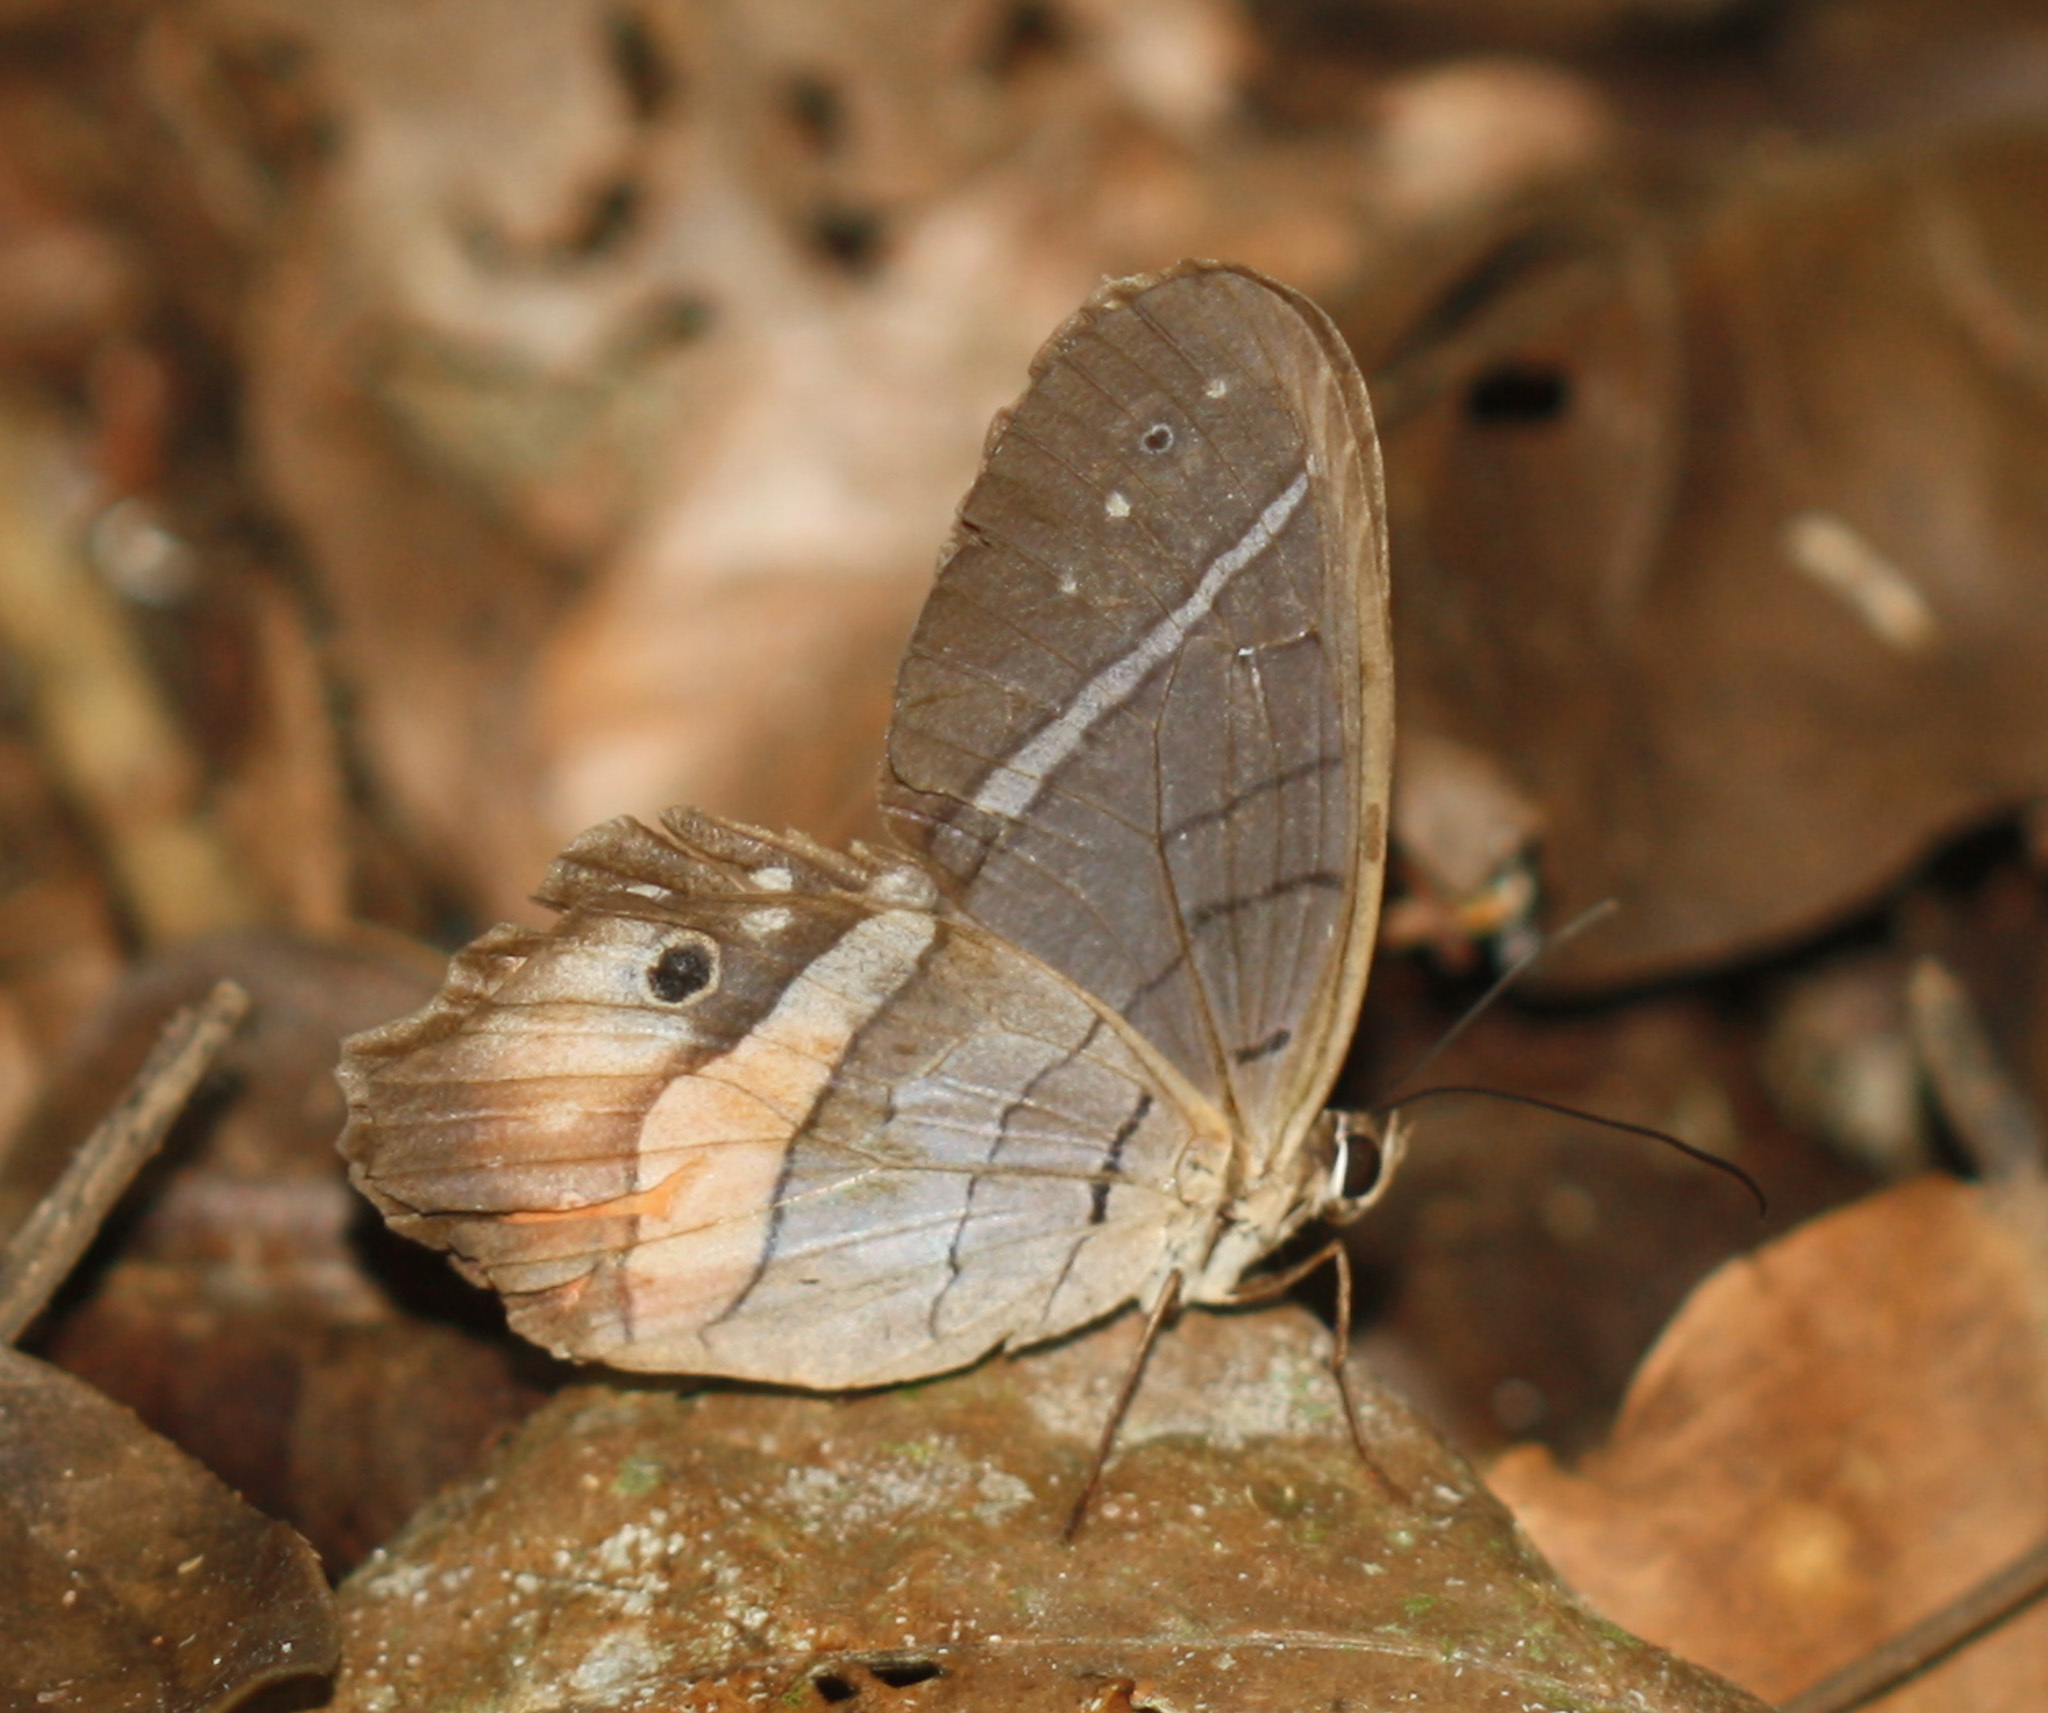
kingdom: Animalia
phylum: Arthropoda
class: Insecta
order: Lepidoptera
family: Nymphalidae
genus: Pierella
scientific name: Pierella helvina
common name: Red-washed satyr
